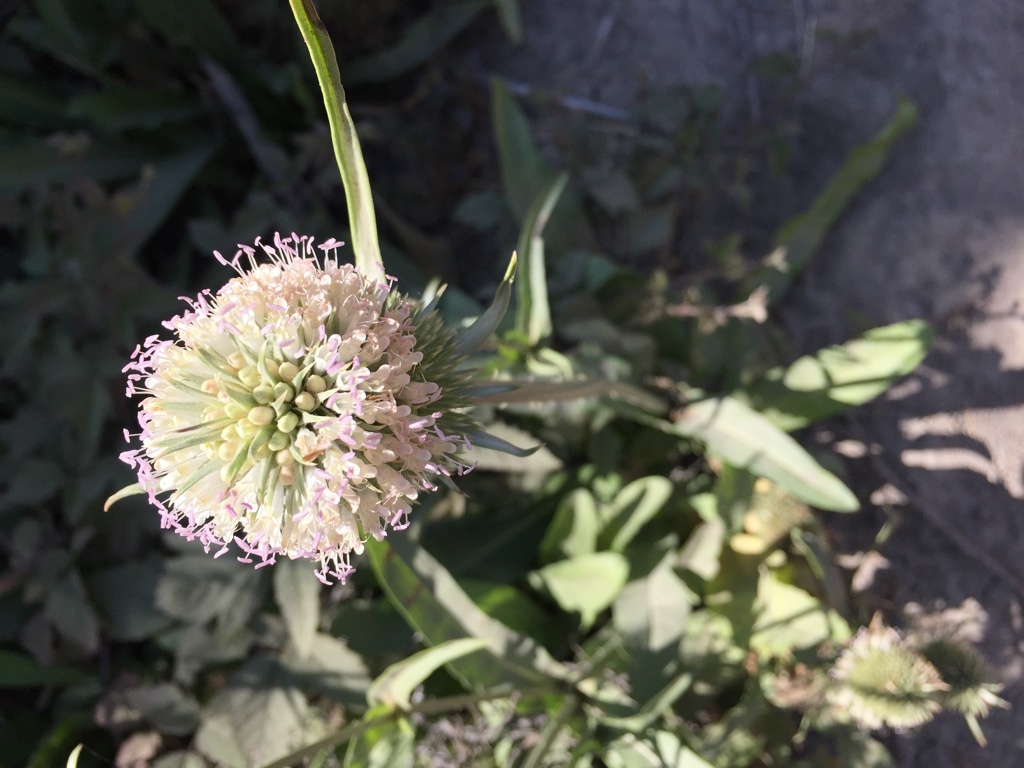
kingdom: Plantae
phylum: Tracheophyta
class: Magnoliopsida
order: Dipsacales
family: Caprifoliaceae
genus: Dipsacus
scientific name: Dipsacus sativus
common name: Fuller's teasel
